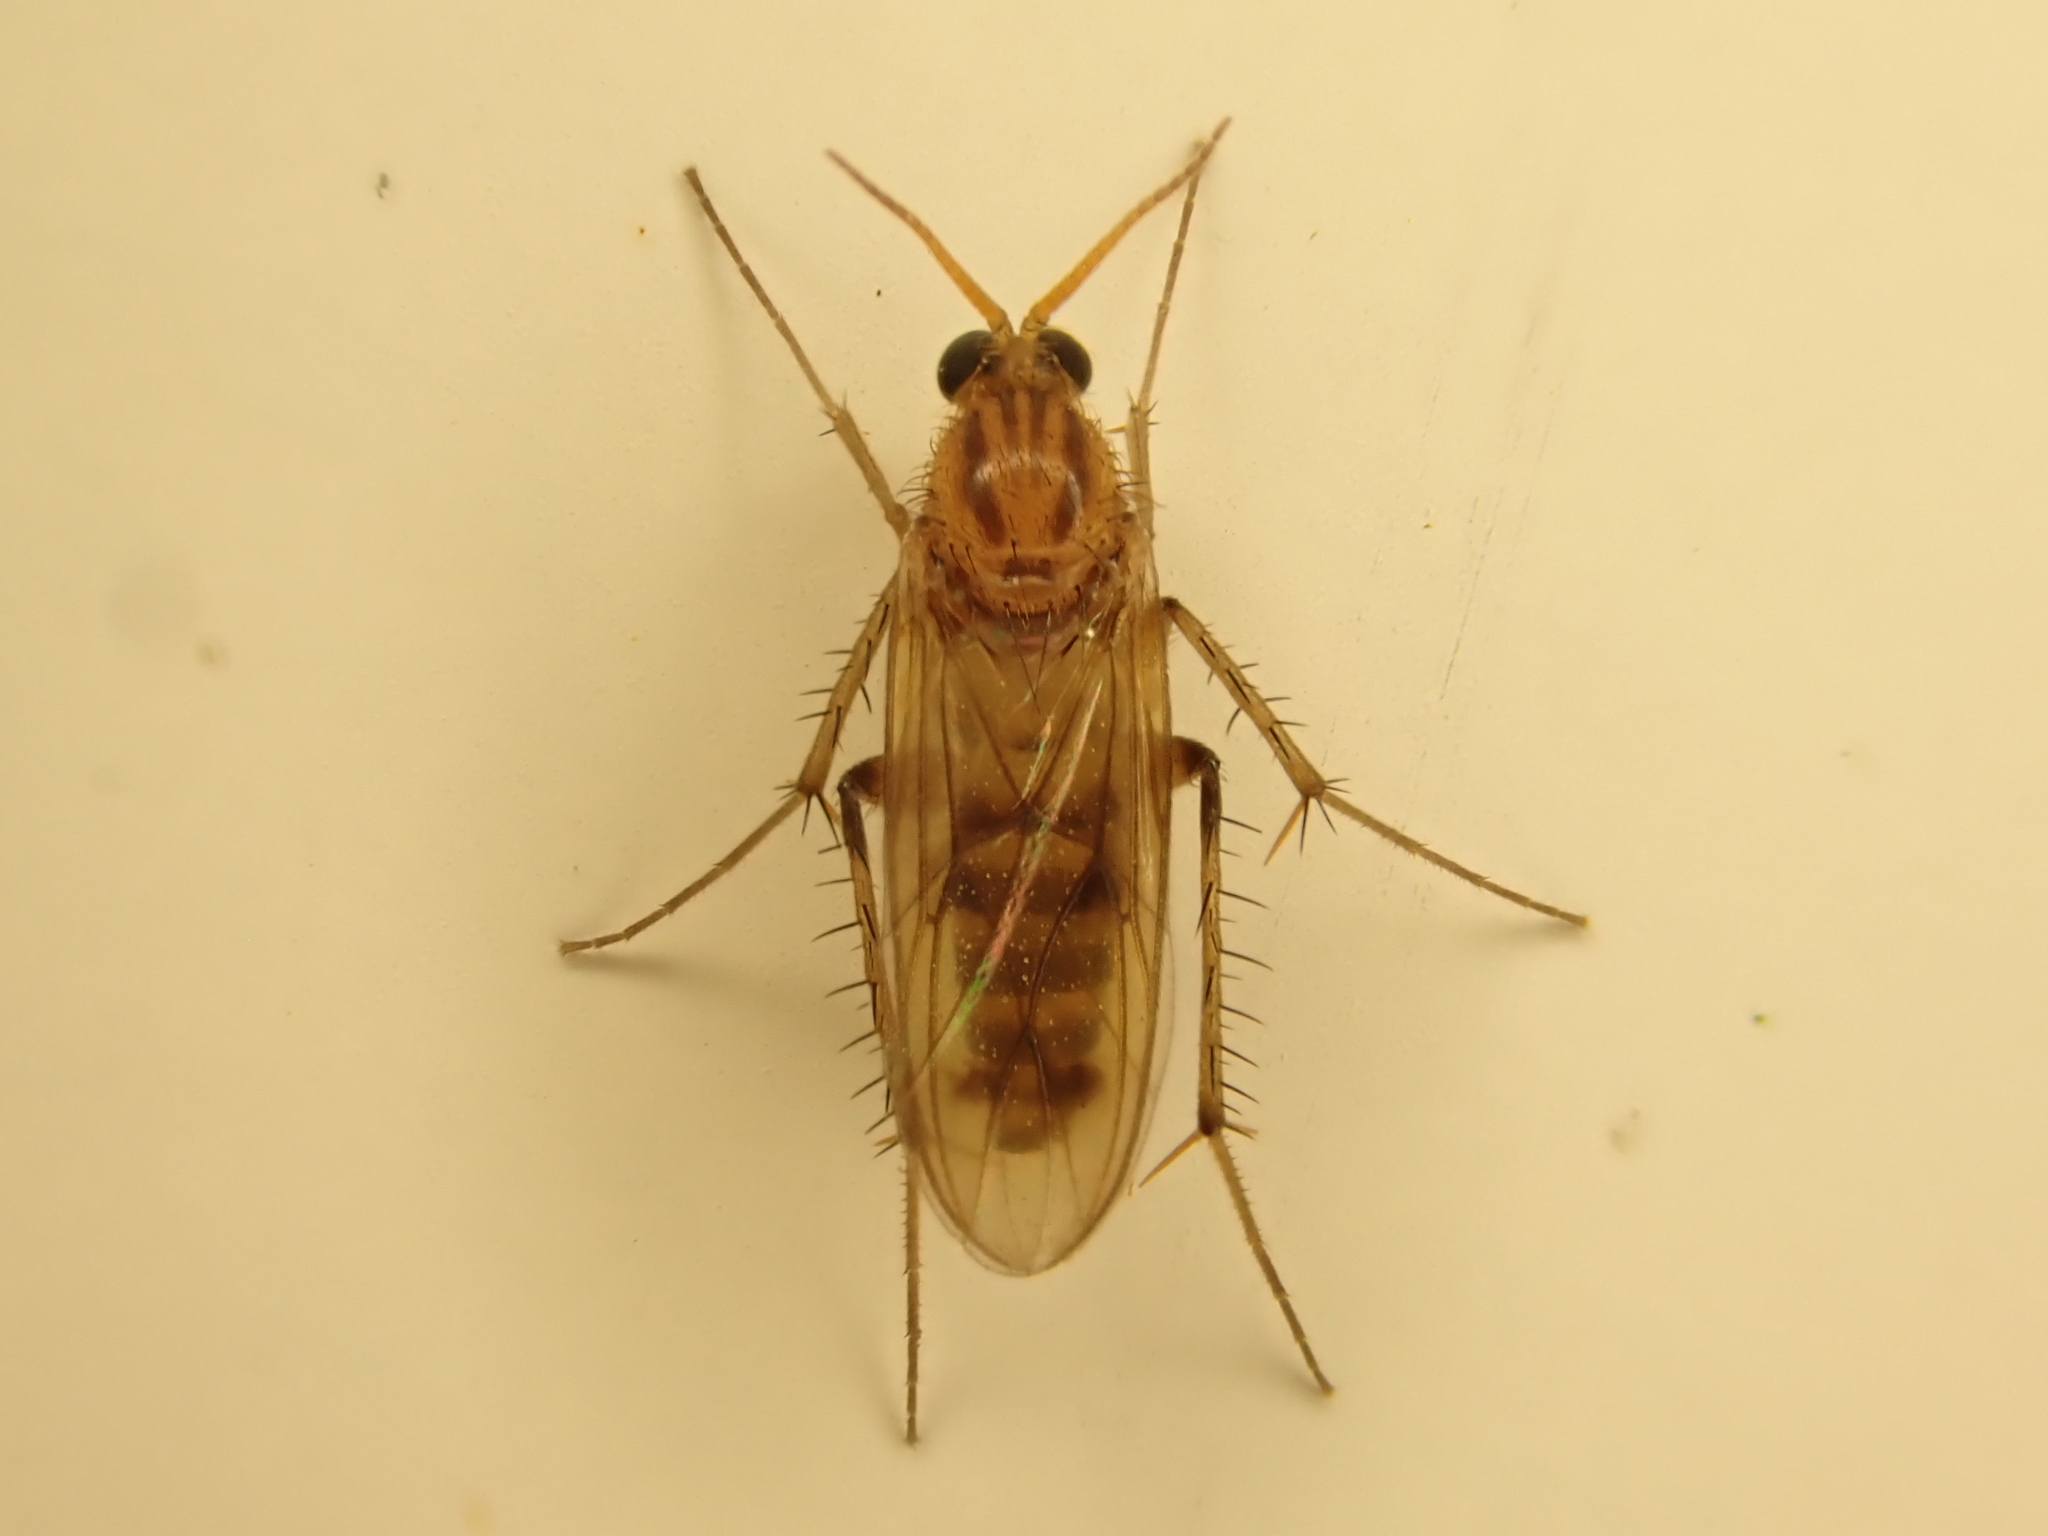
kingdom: Animalia
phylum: Arthropoda
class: Insecta
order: Diptera
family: Mycetophilidae
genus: Anomalomyia
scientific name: Anomalomyia guttata
